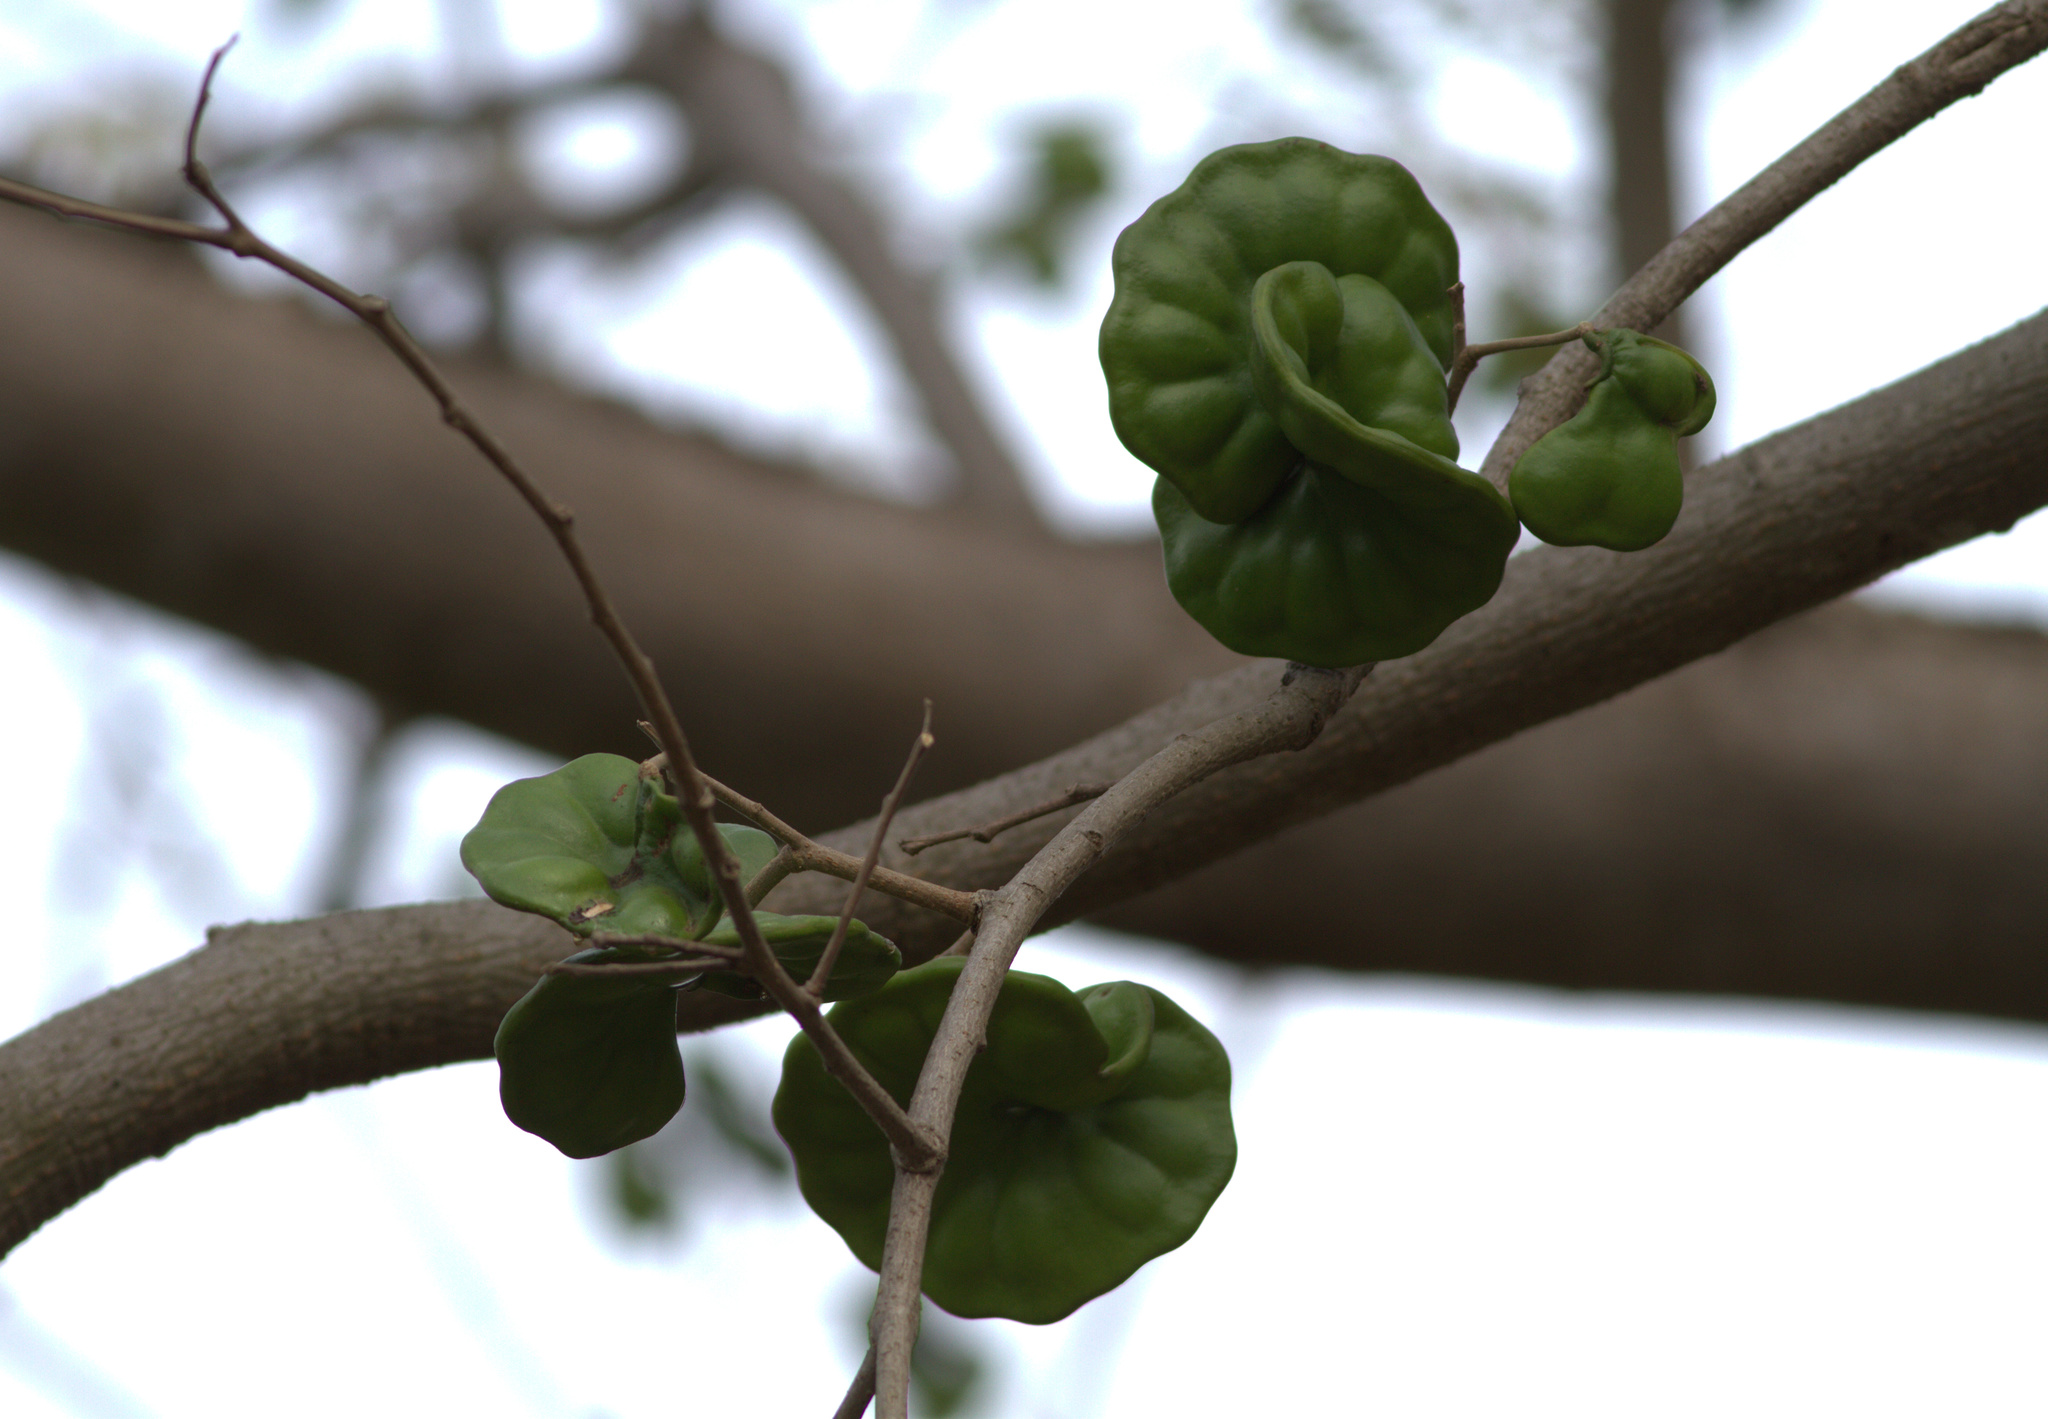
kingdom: Plantae
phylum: Tracheophyta
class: Magnoliopsida
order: Fabales
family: Fabaceae
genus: Enterolobium
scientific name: Enterolobium schomburgkii
